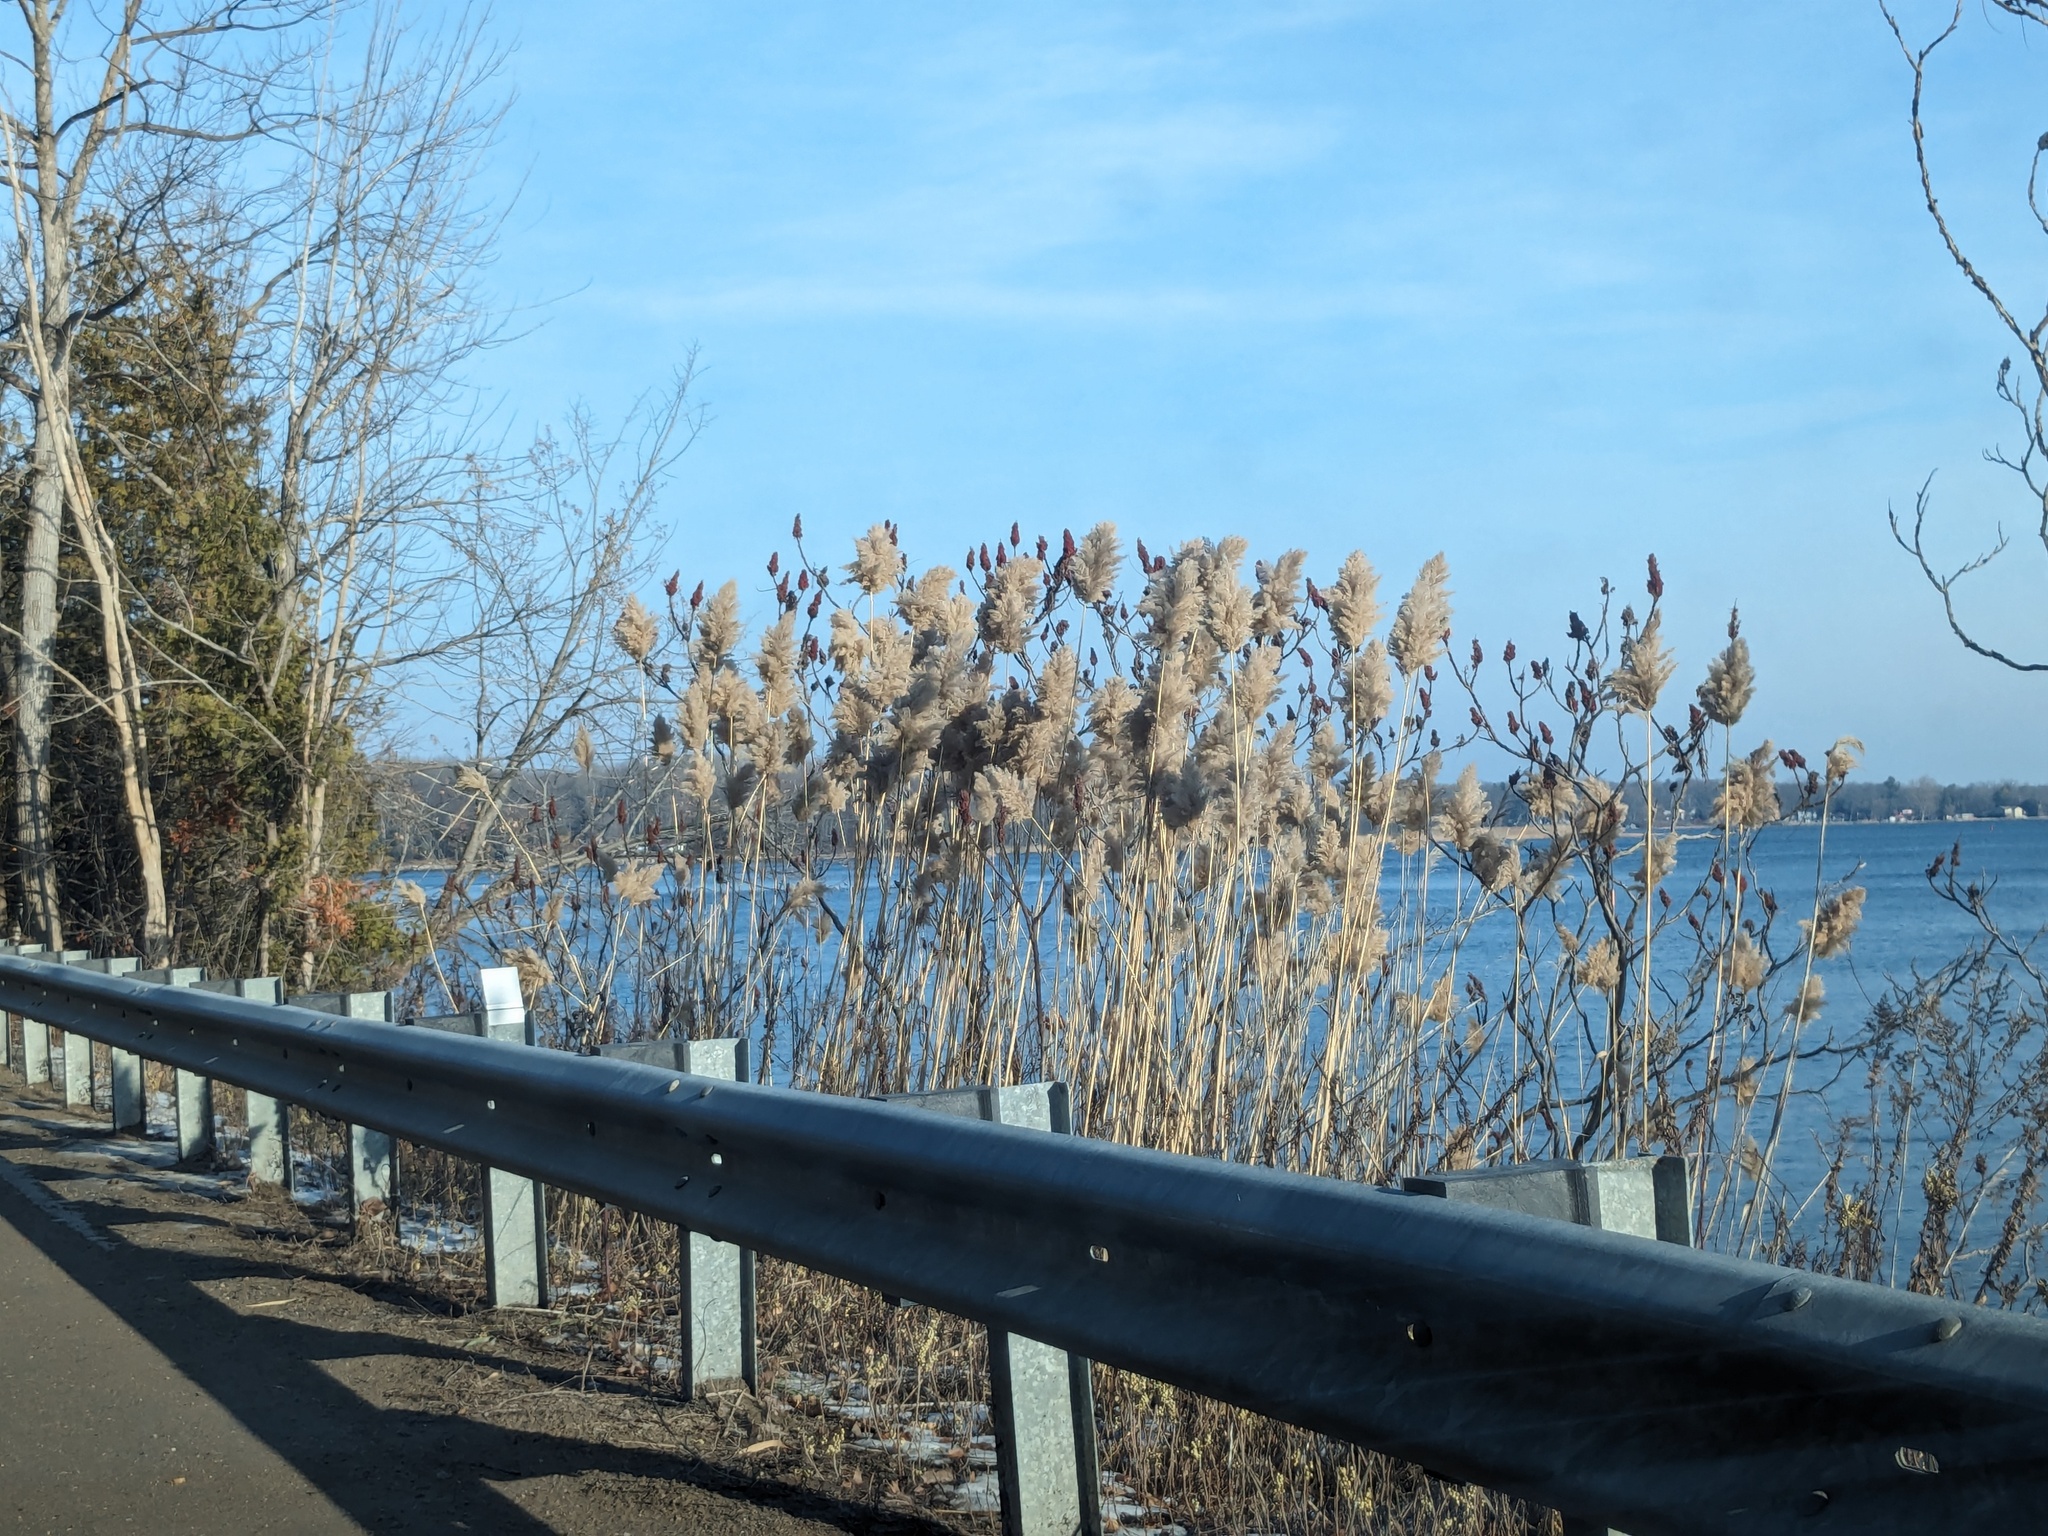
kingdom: Plantae
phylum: Tracheophyta
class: Liliopsida
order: Poales
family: Poaceae
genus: Phragmites
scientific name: Phragmites australis
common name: Common reed
